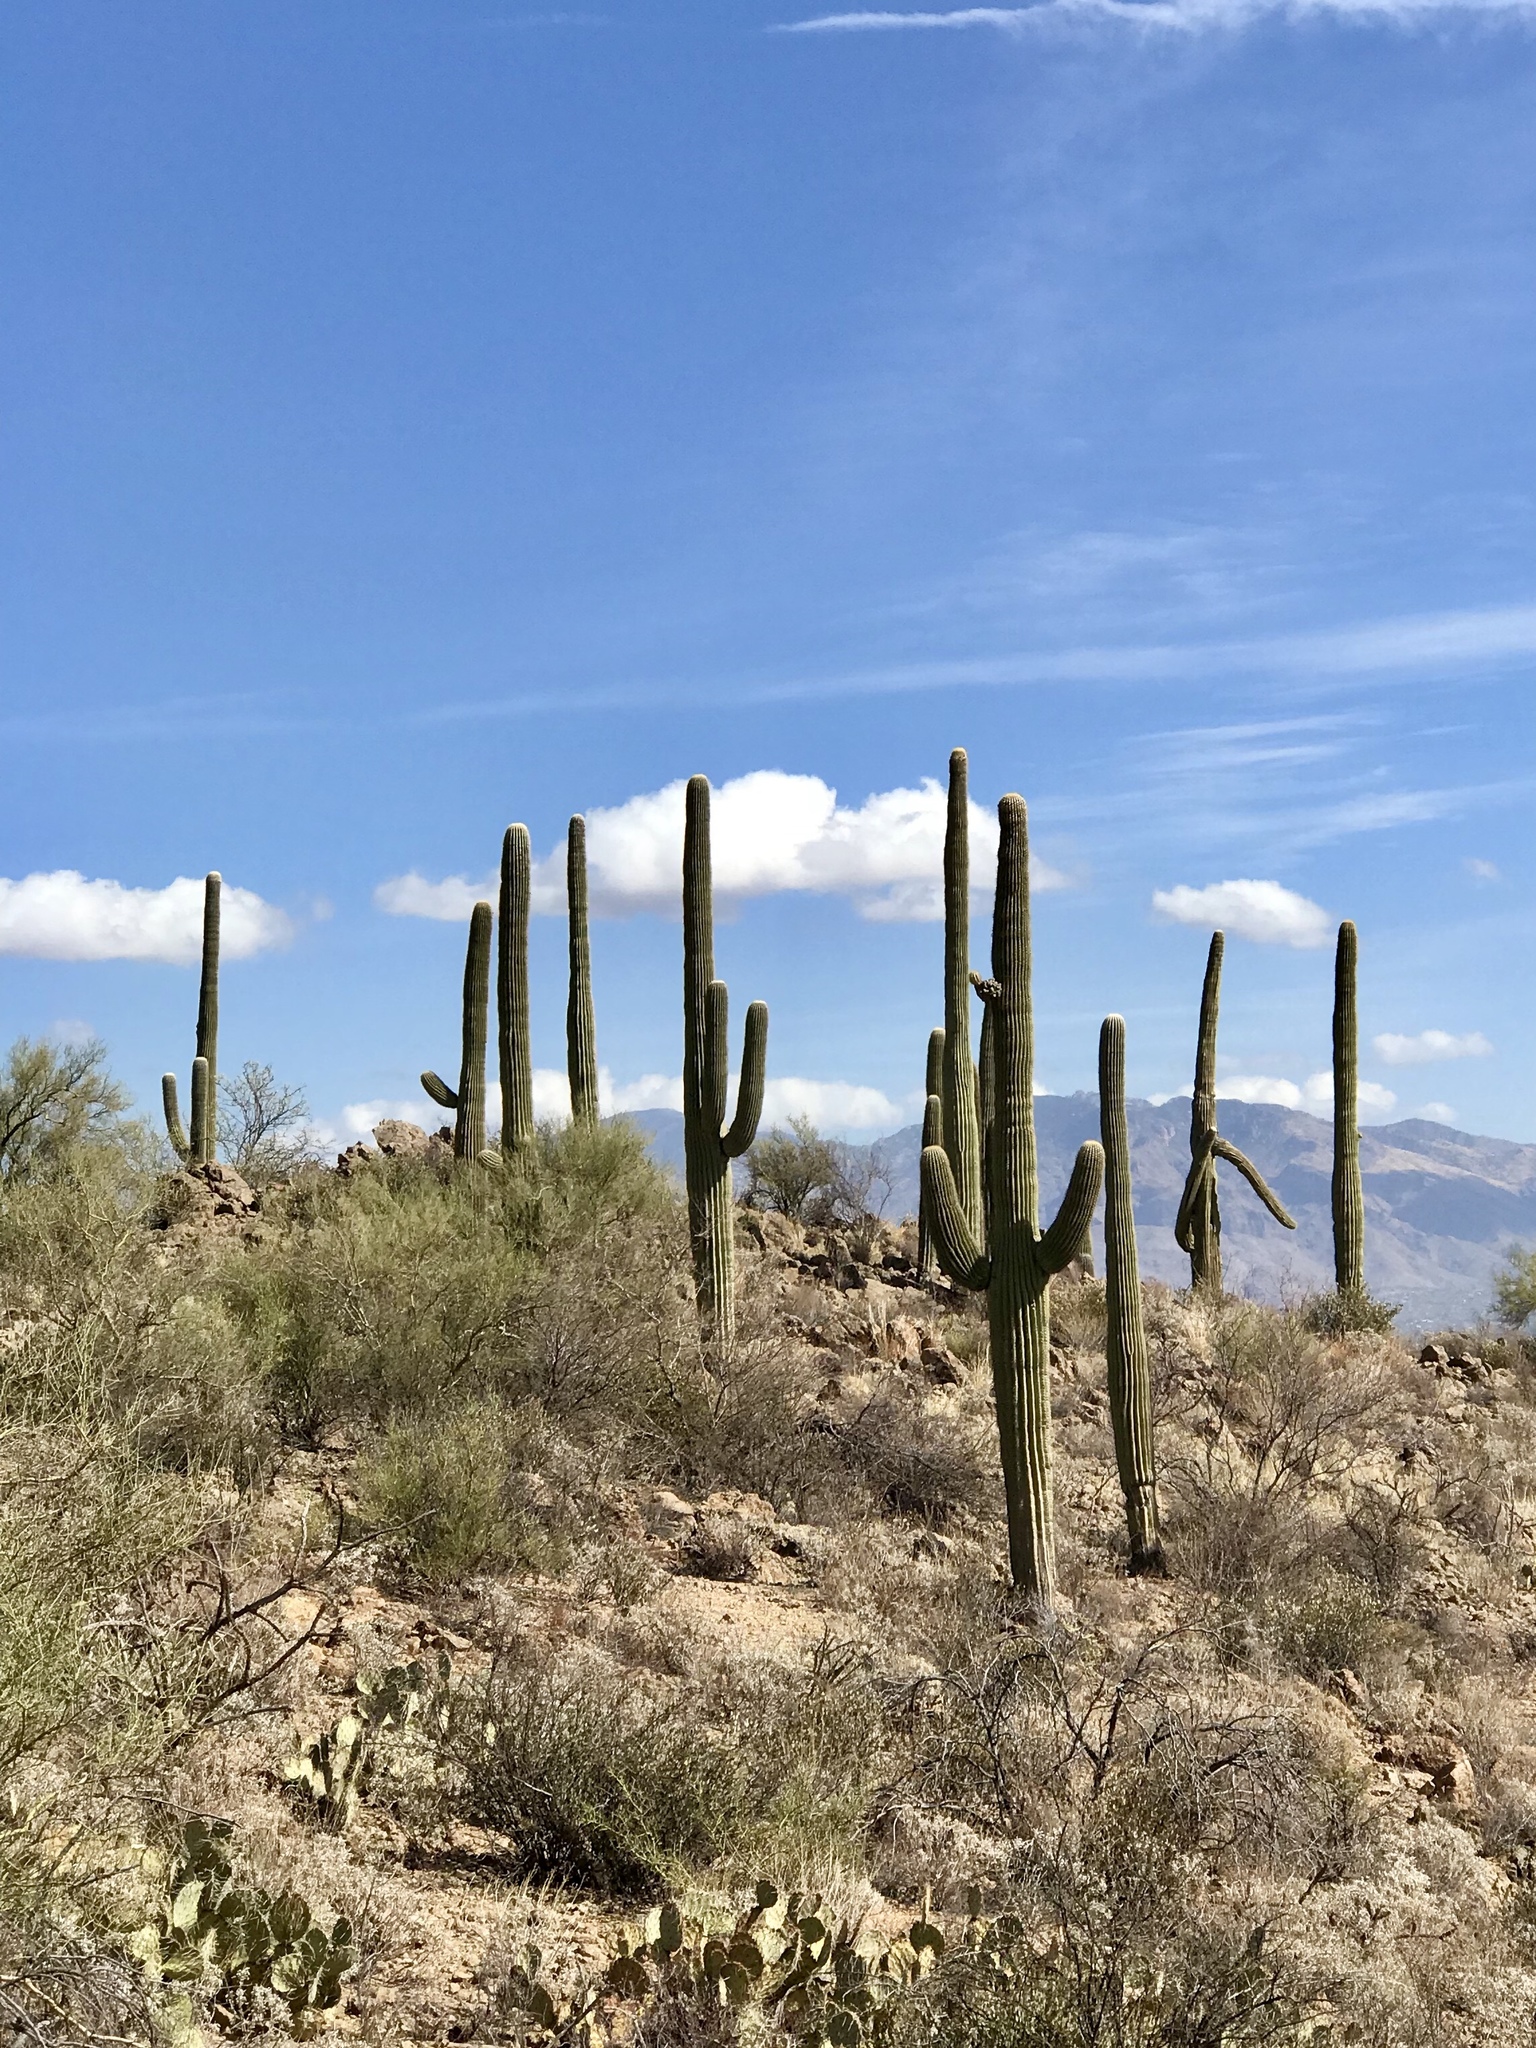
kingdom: Plantae
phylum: Tracheophyta
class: Magnoliopsida
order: Caryophyllales
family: Cactaceae
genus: Carnegiea
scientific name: Carnegiea gigantea
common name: Saguaro
